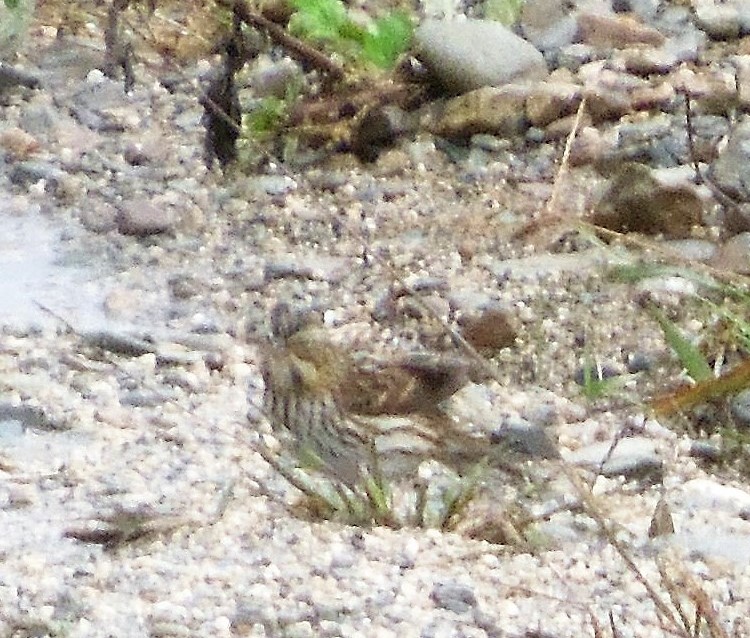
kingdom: Animalia
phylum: Chordata
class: Aves
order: Passeriformes
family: Passerellidae
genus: Passerculus
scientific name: Passerculus sandwichensis
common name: Savannah sparrow
